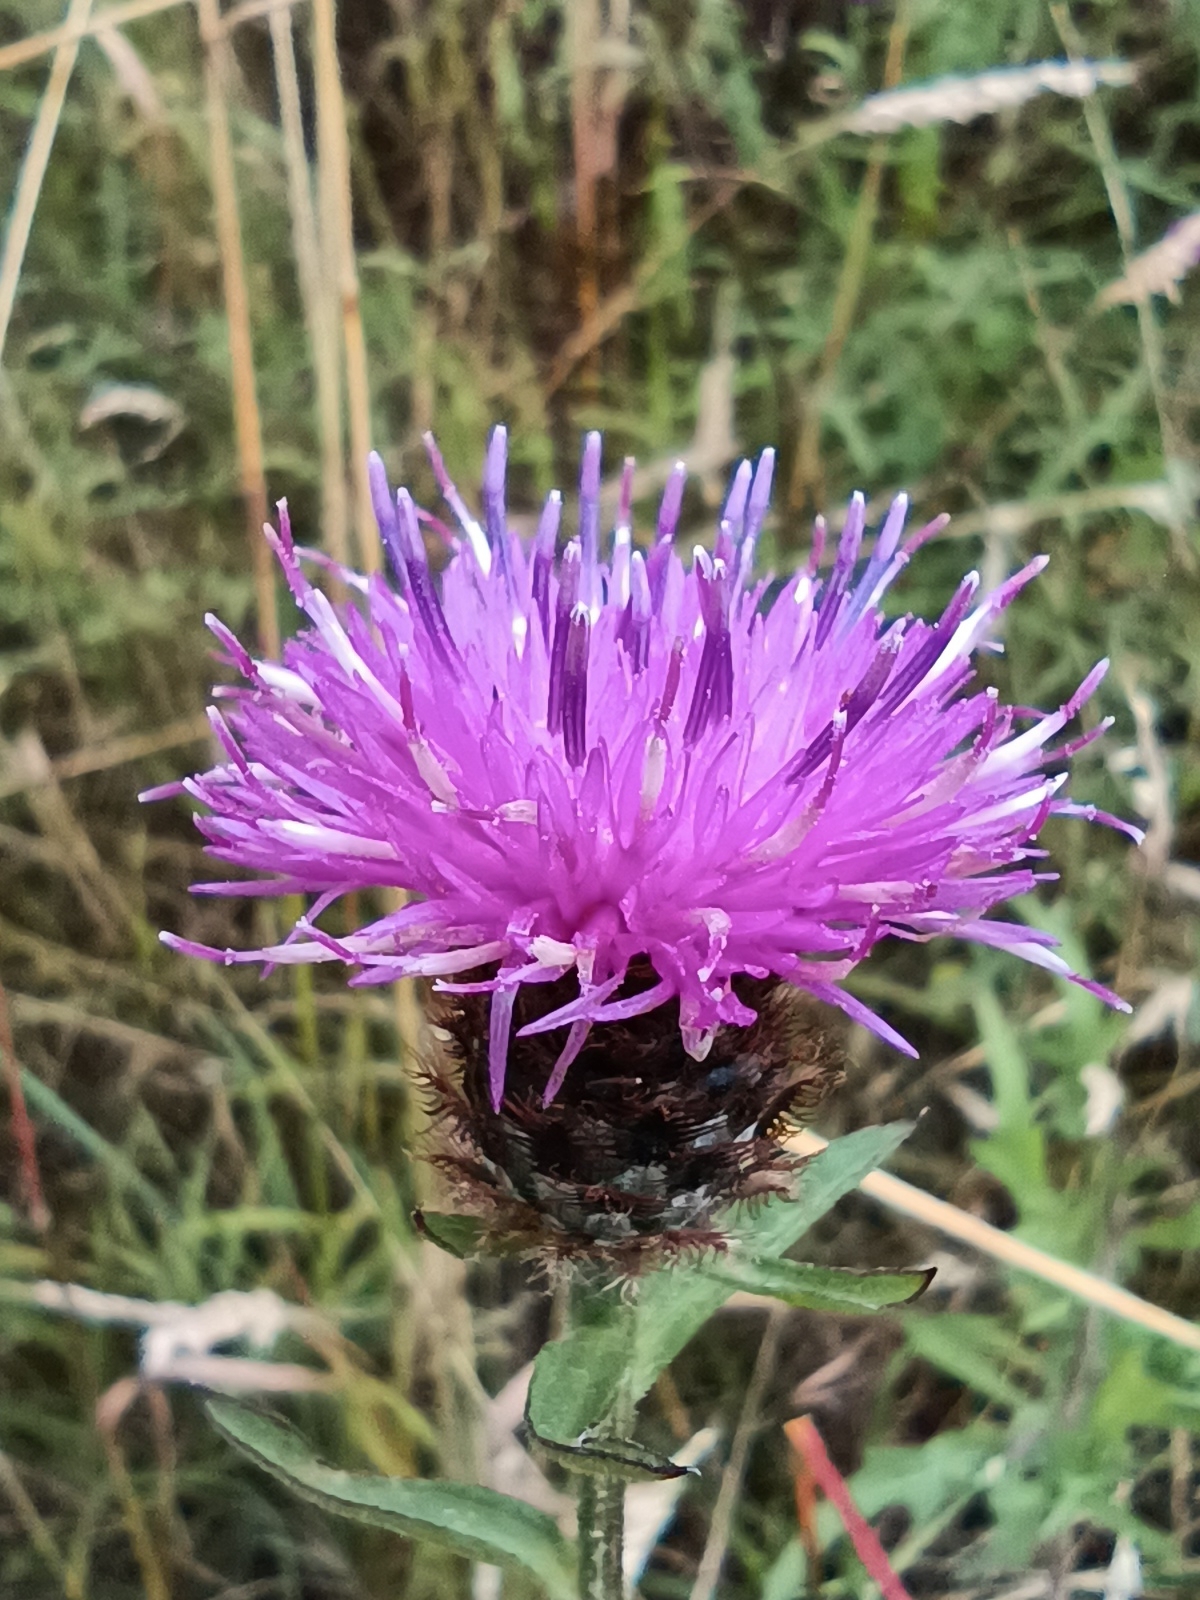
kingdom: Plantae
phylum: Tracheophyta
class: Magnoliopsida
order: Asterales
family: Asteraceae
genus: Centaurea
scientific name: Centaurea nigra
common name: Lesser knapweed
